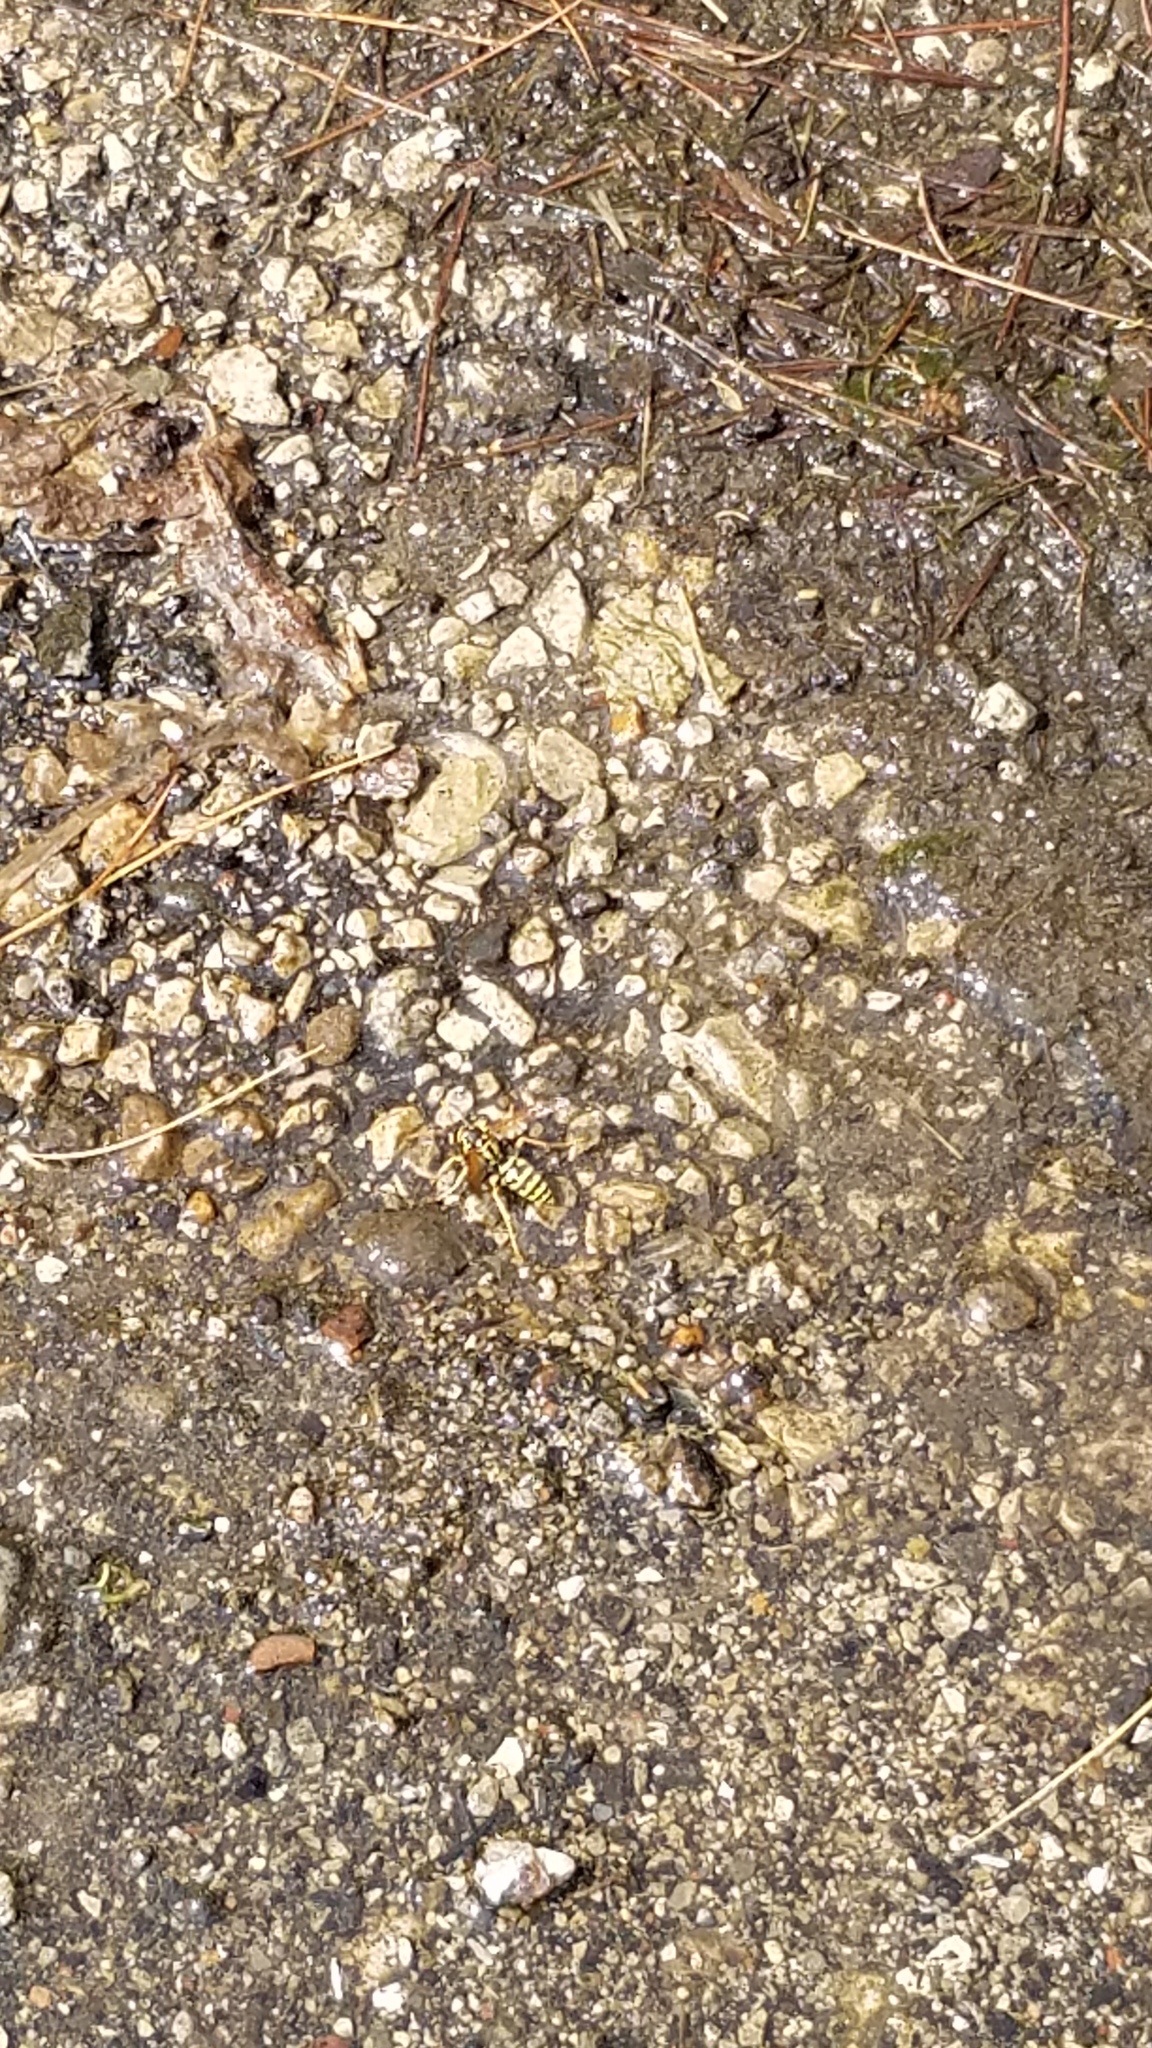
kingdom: Animalia
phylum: Arthropoda
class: Insecta
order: Hymenoptera
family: Eumenidae
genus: Polistes
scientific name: Polistes dominula
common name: Paper wasp
